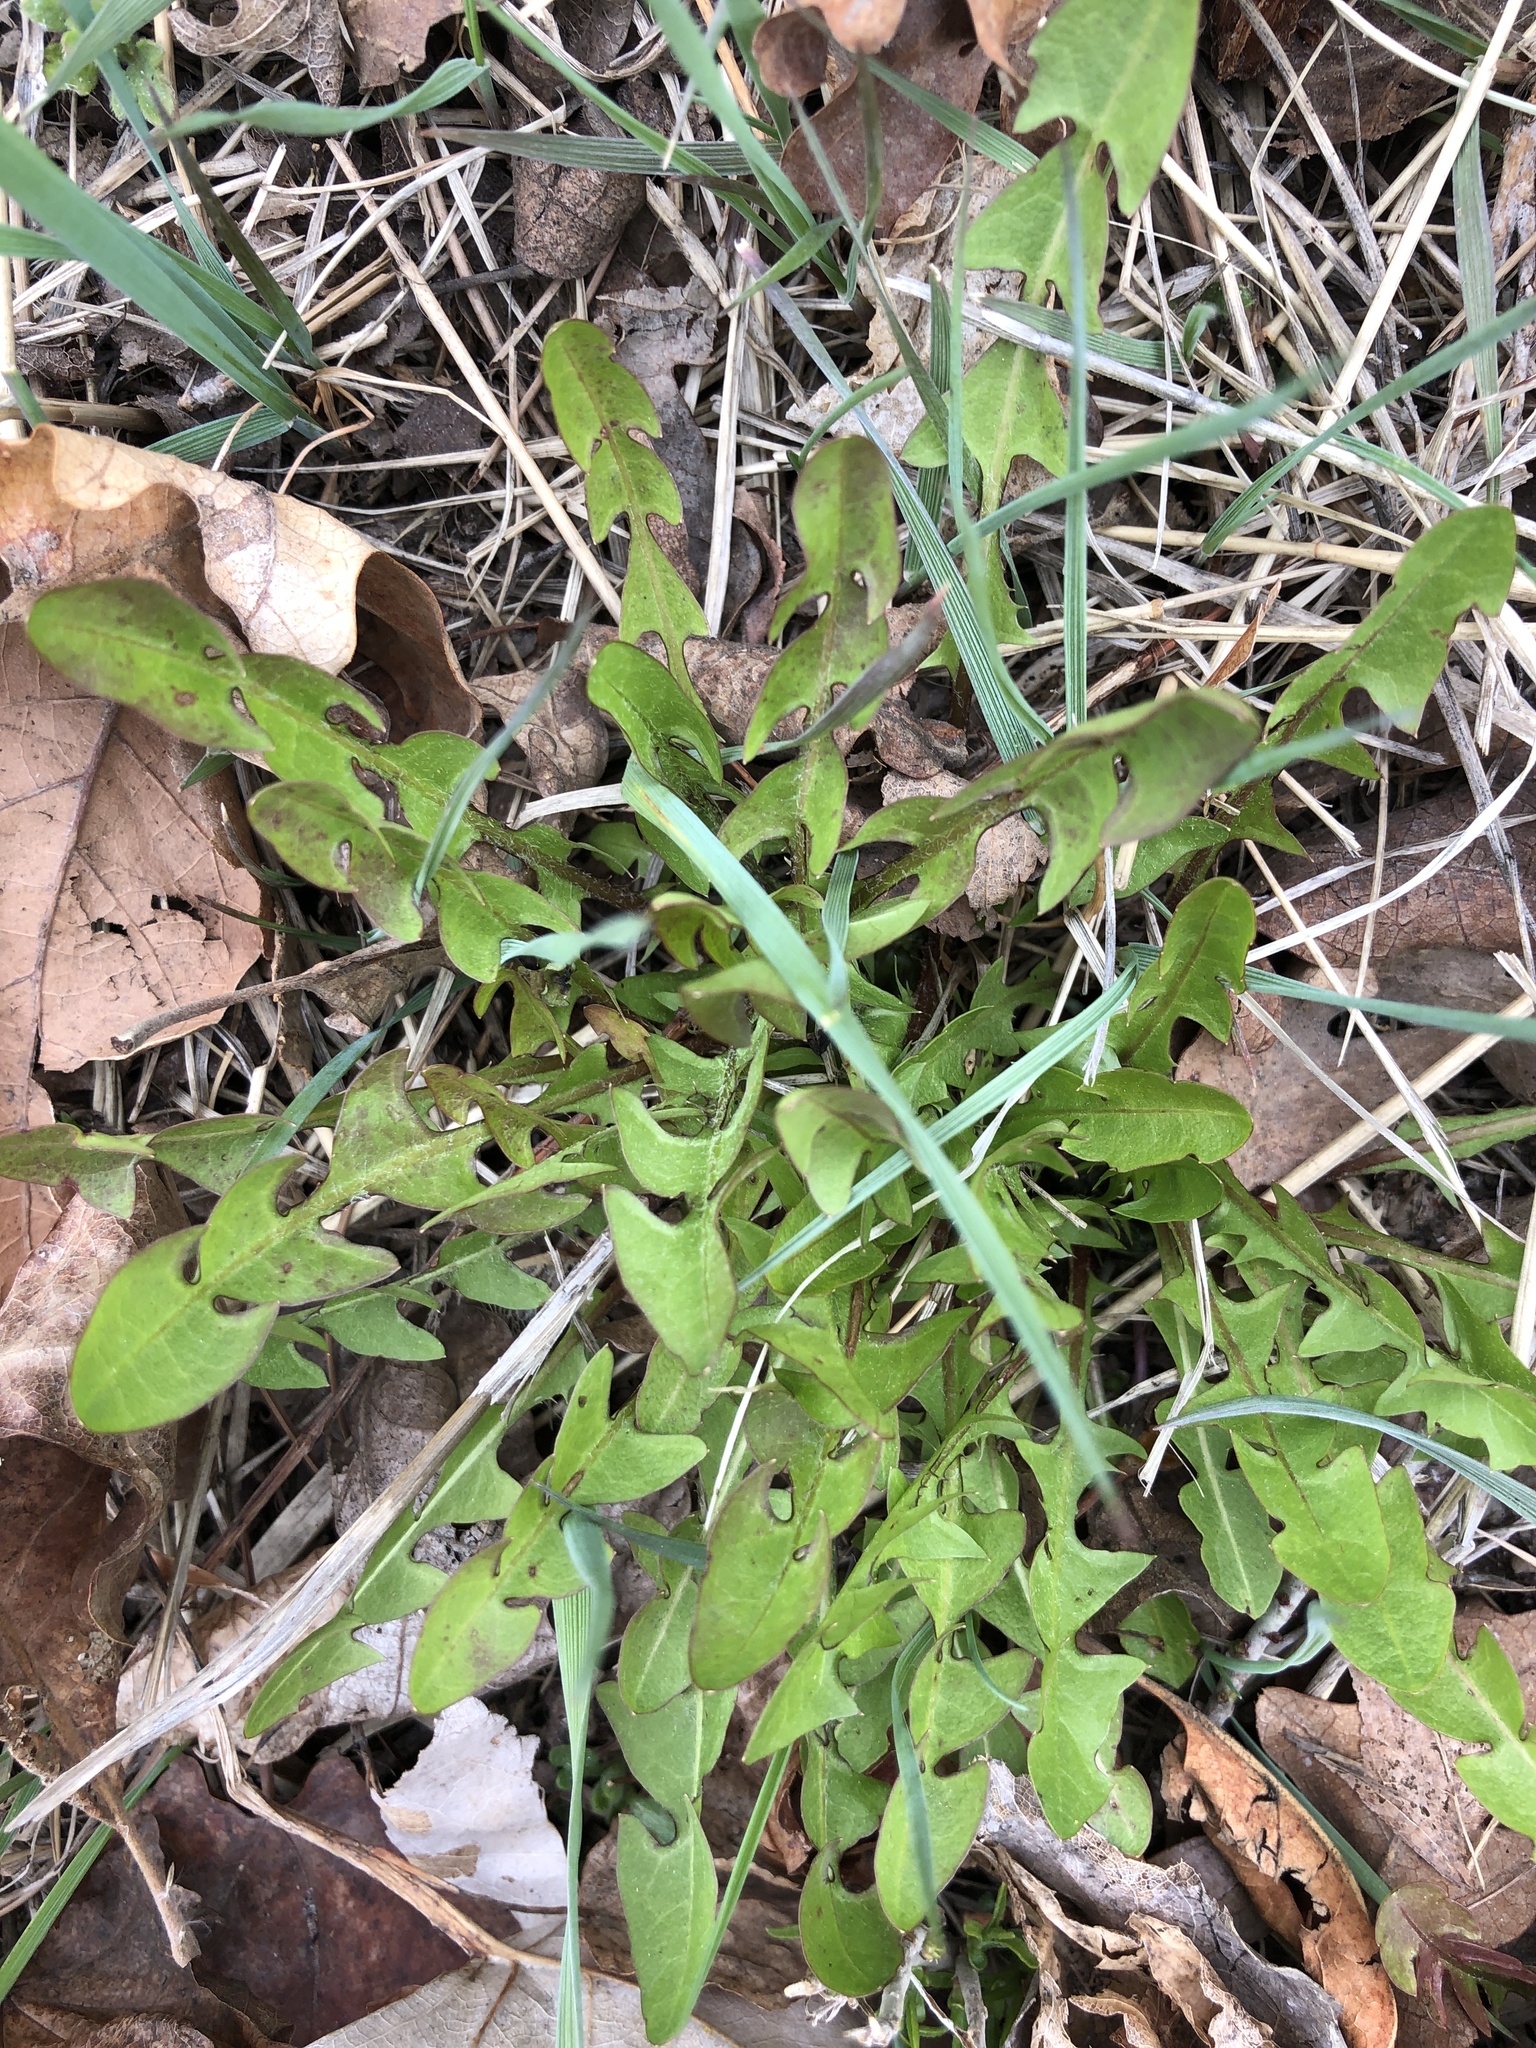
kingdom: Plantae
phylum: Tracheophyta
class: Magnoliopsida
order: Asterales
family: Asteraceae
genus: Taraxacum
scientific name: Taraxacum officinale
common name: Common dandelion
